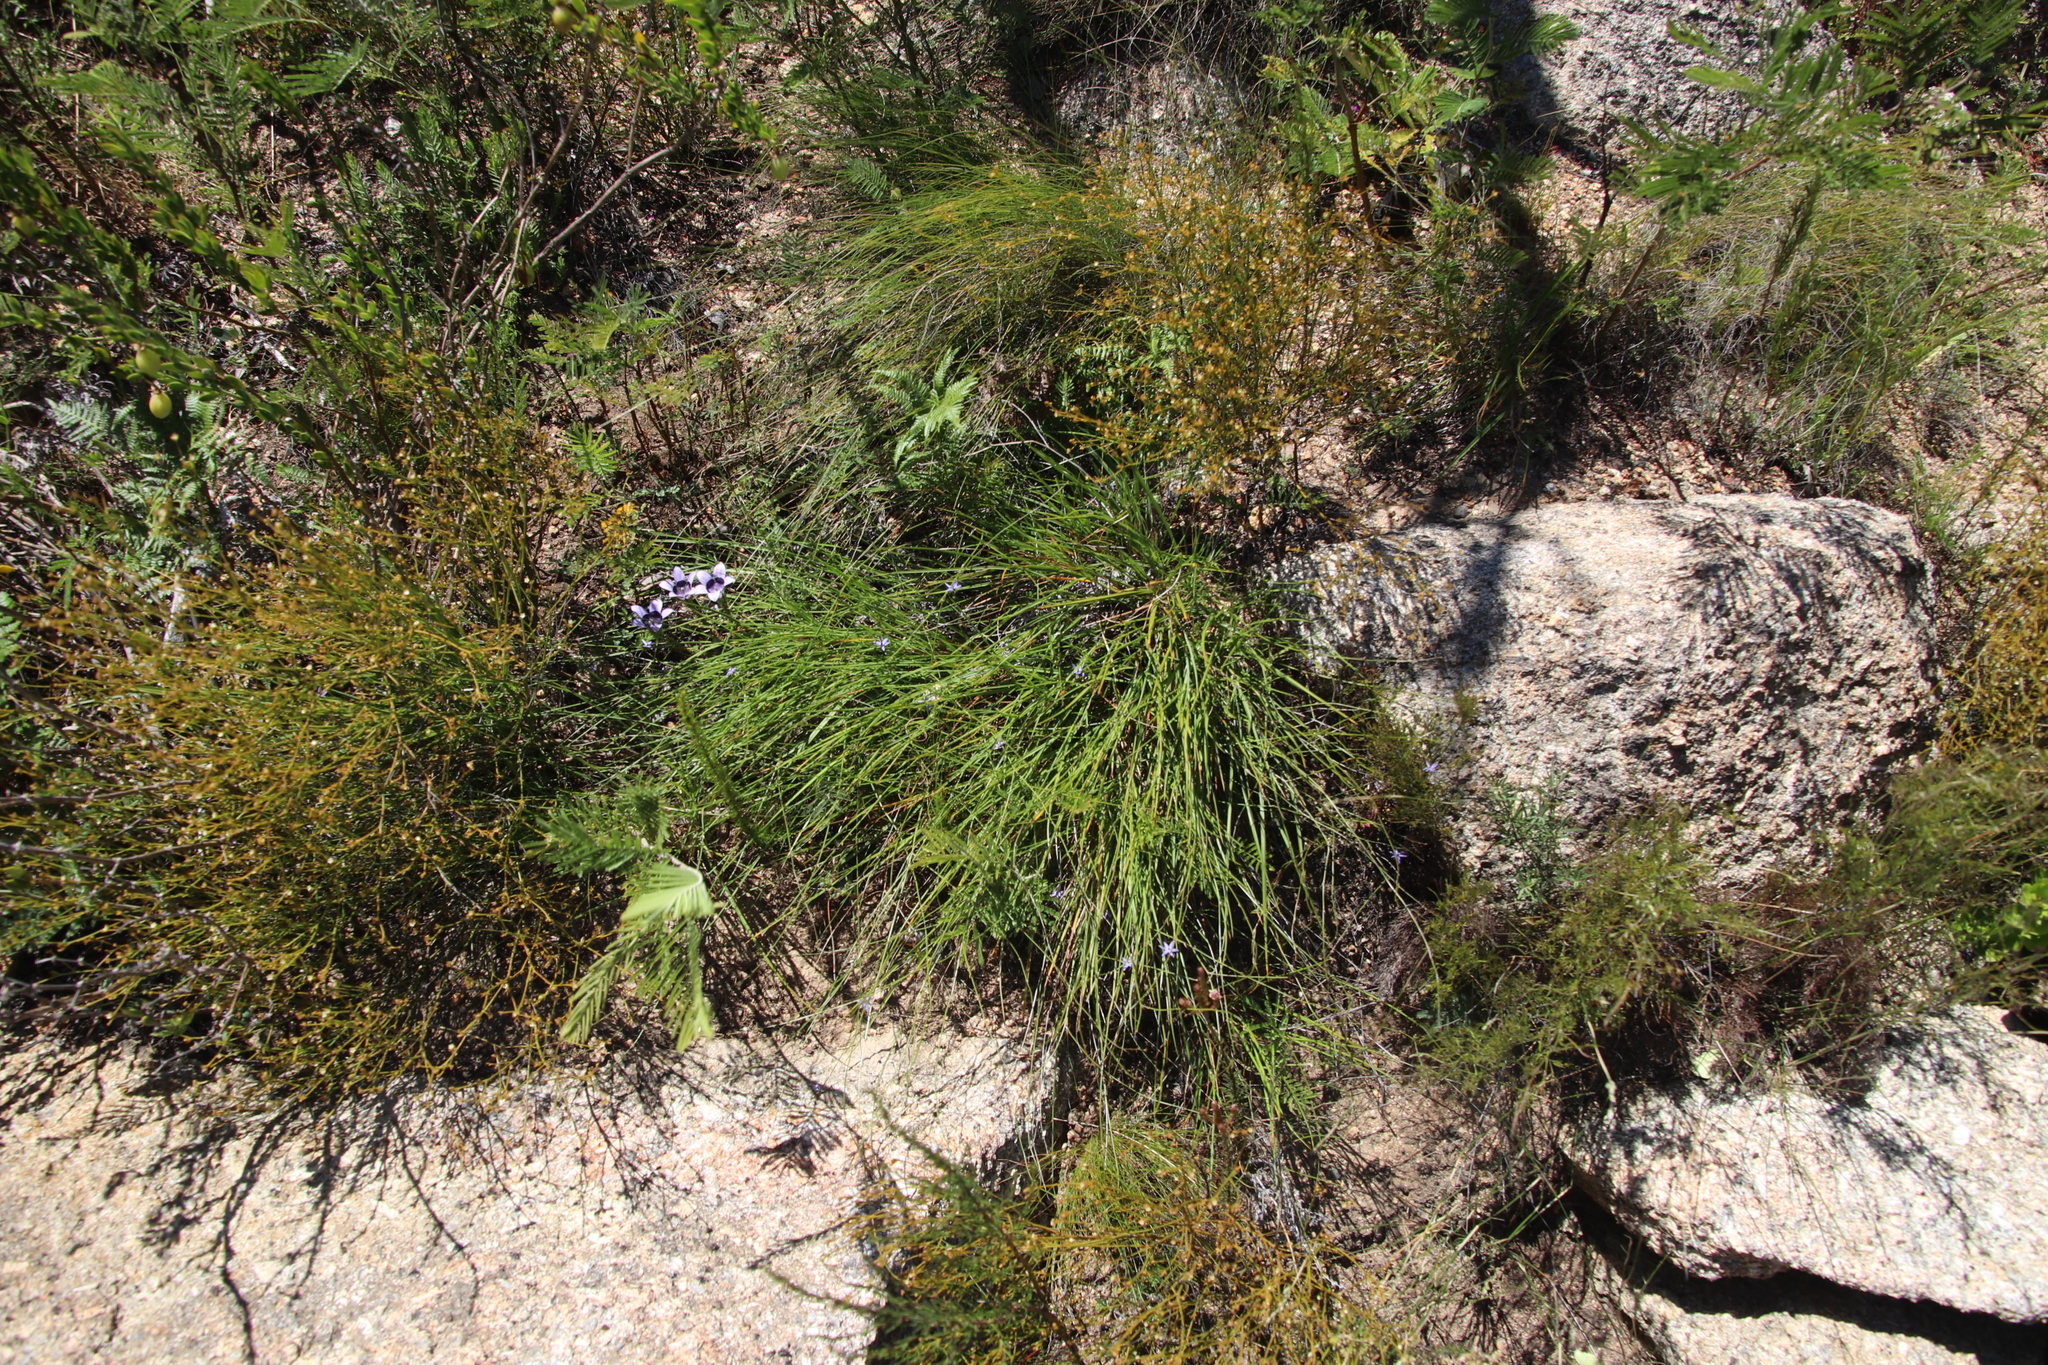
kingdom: Plantae
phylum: Tracheophyta
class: Liliopsida
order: Asparagales
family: Asphodelaceae
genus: Caesia
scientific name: Caesia contorta
